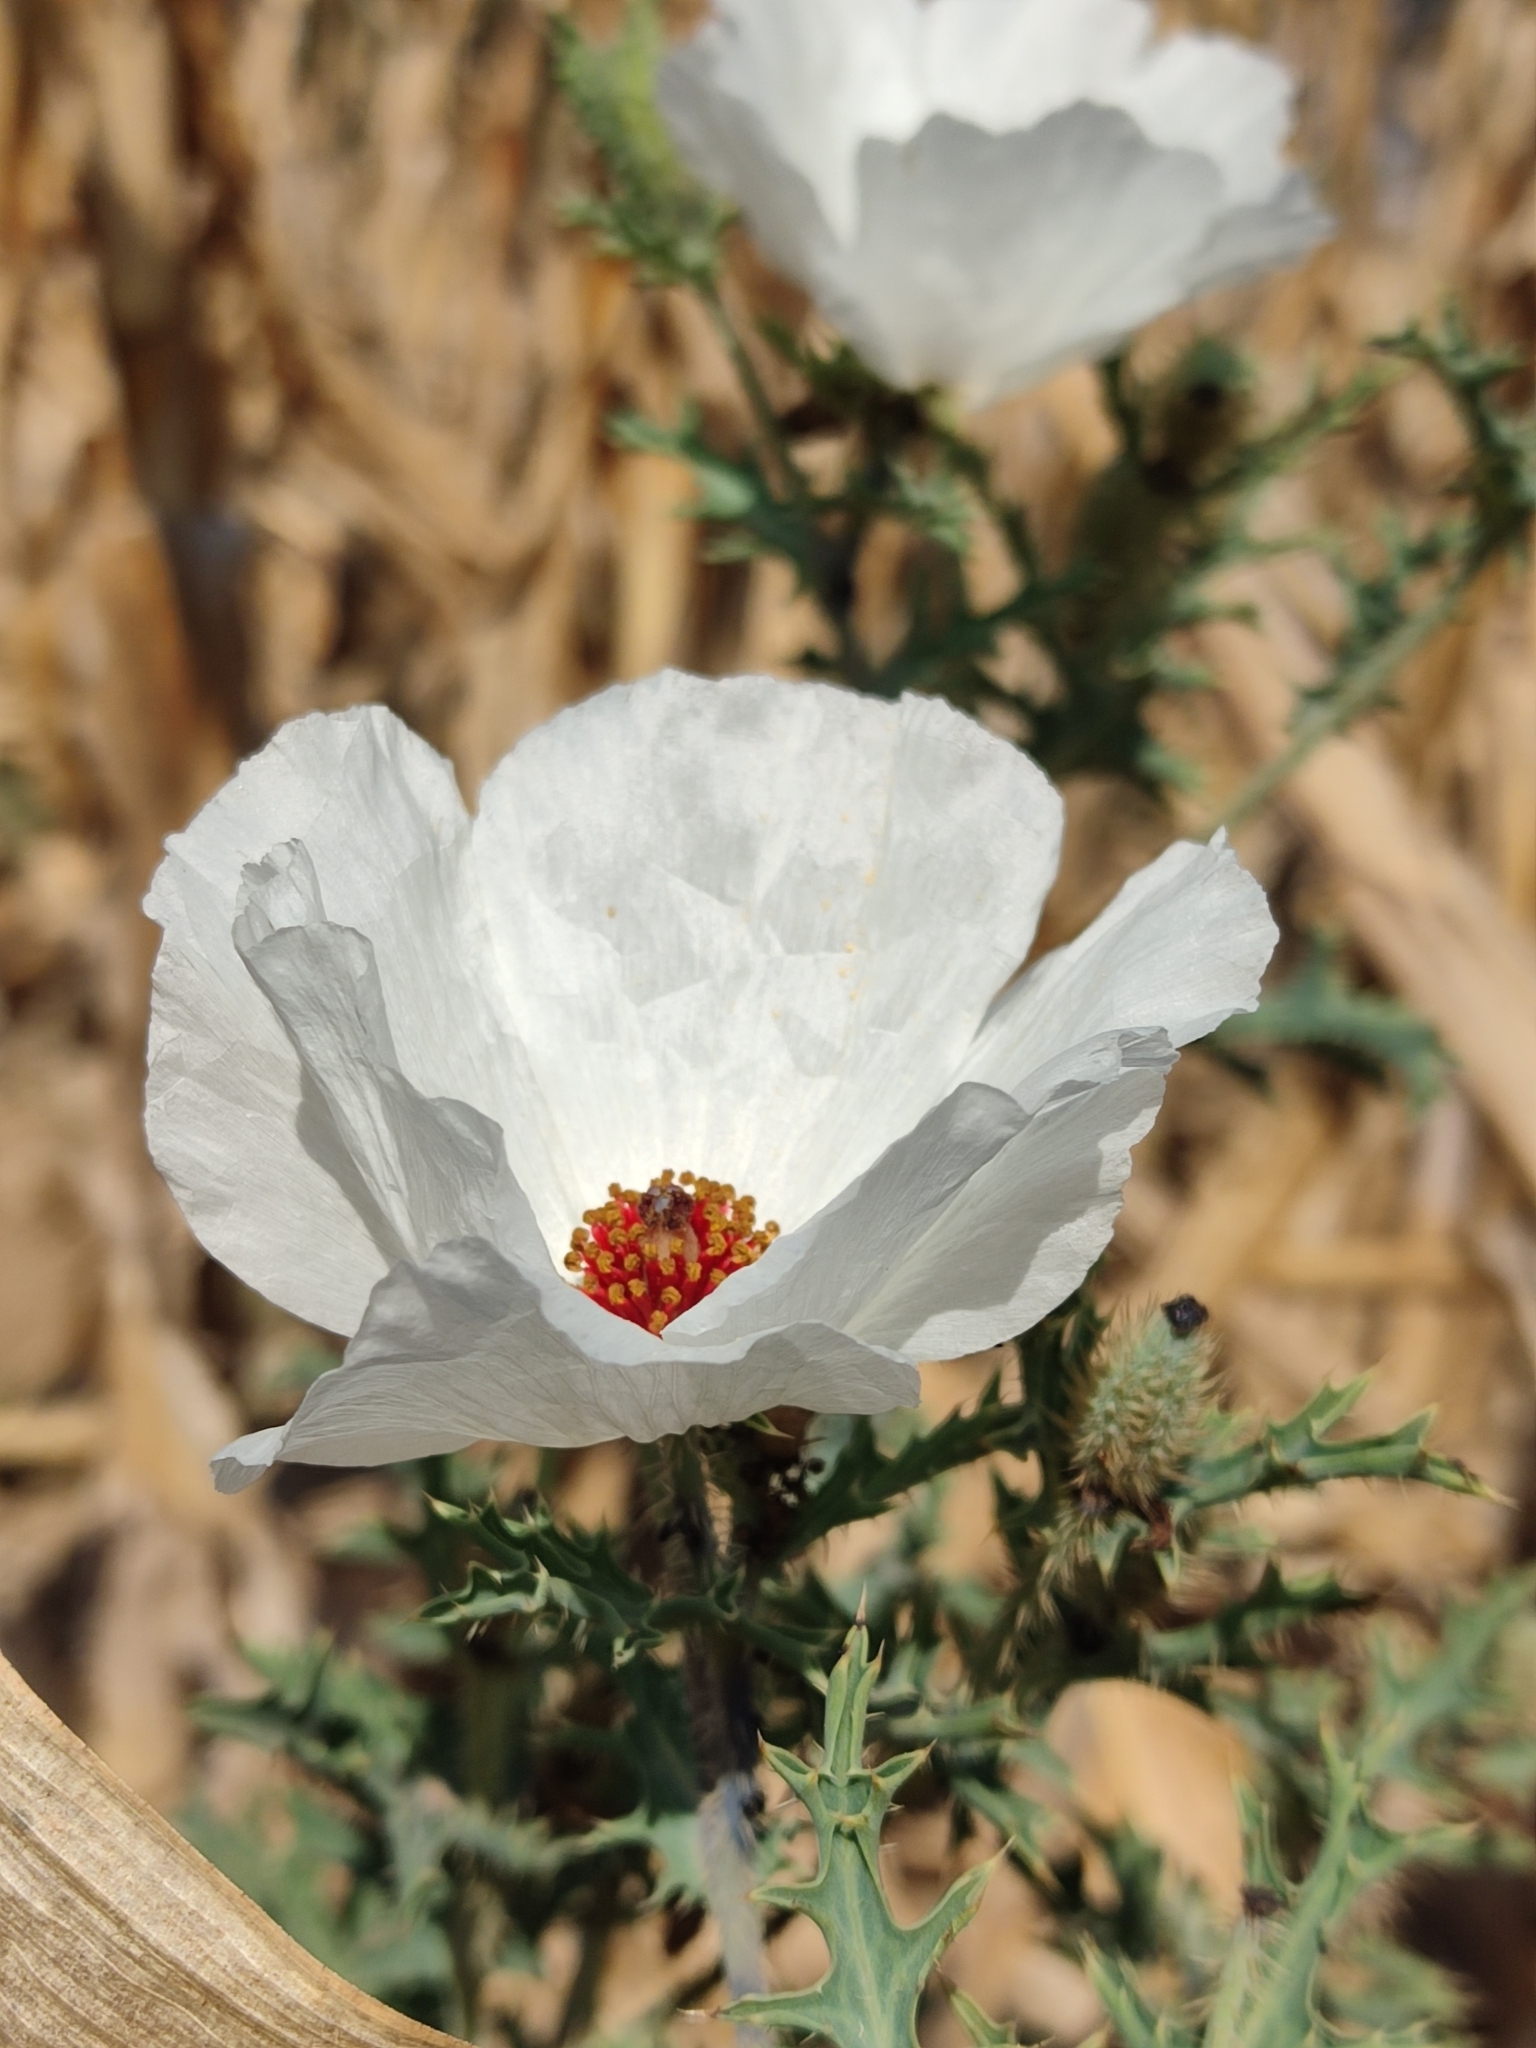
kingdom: Plantae
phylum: Tracheophyta
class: Magnoliopsida
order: Ranunculales
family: Papaveraceae
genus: Argemone
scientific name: Argemone platyceras
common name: Crested-poppy
